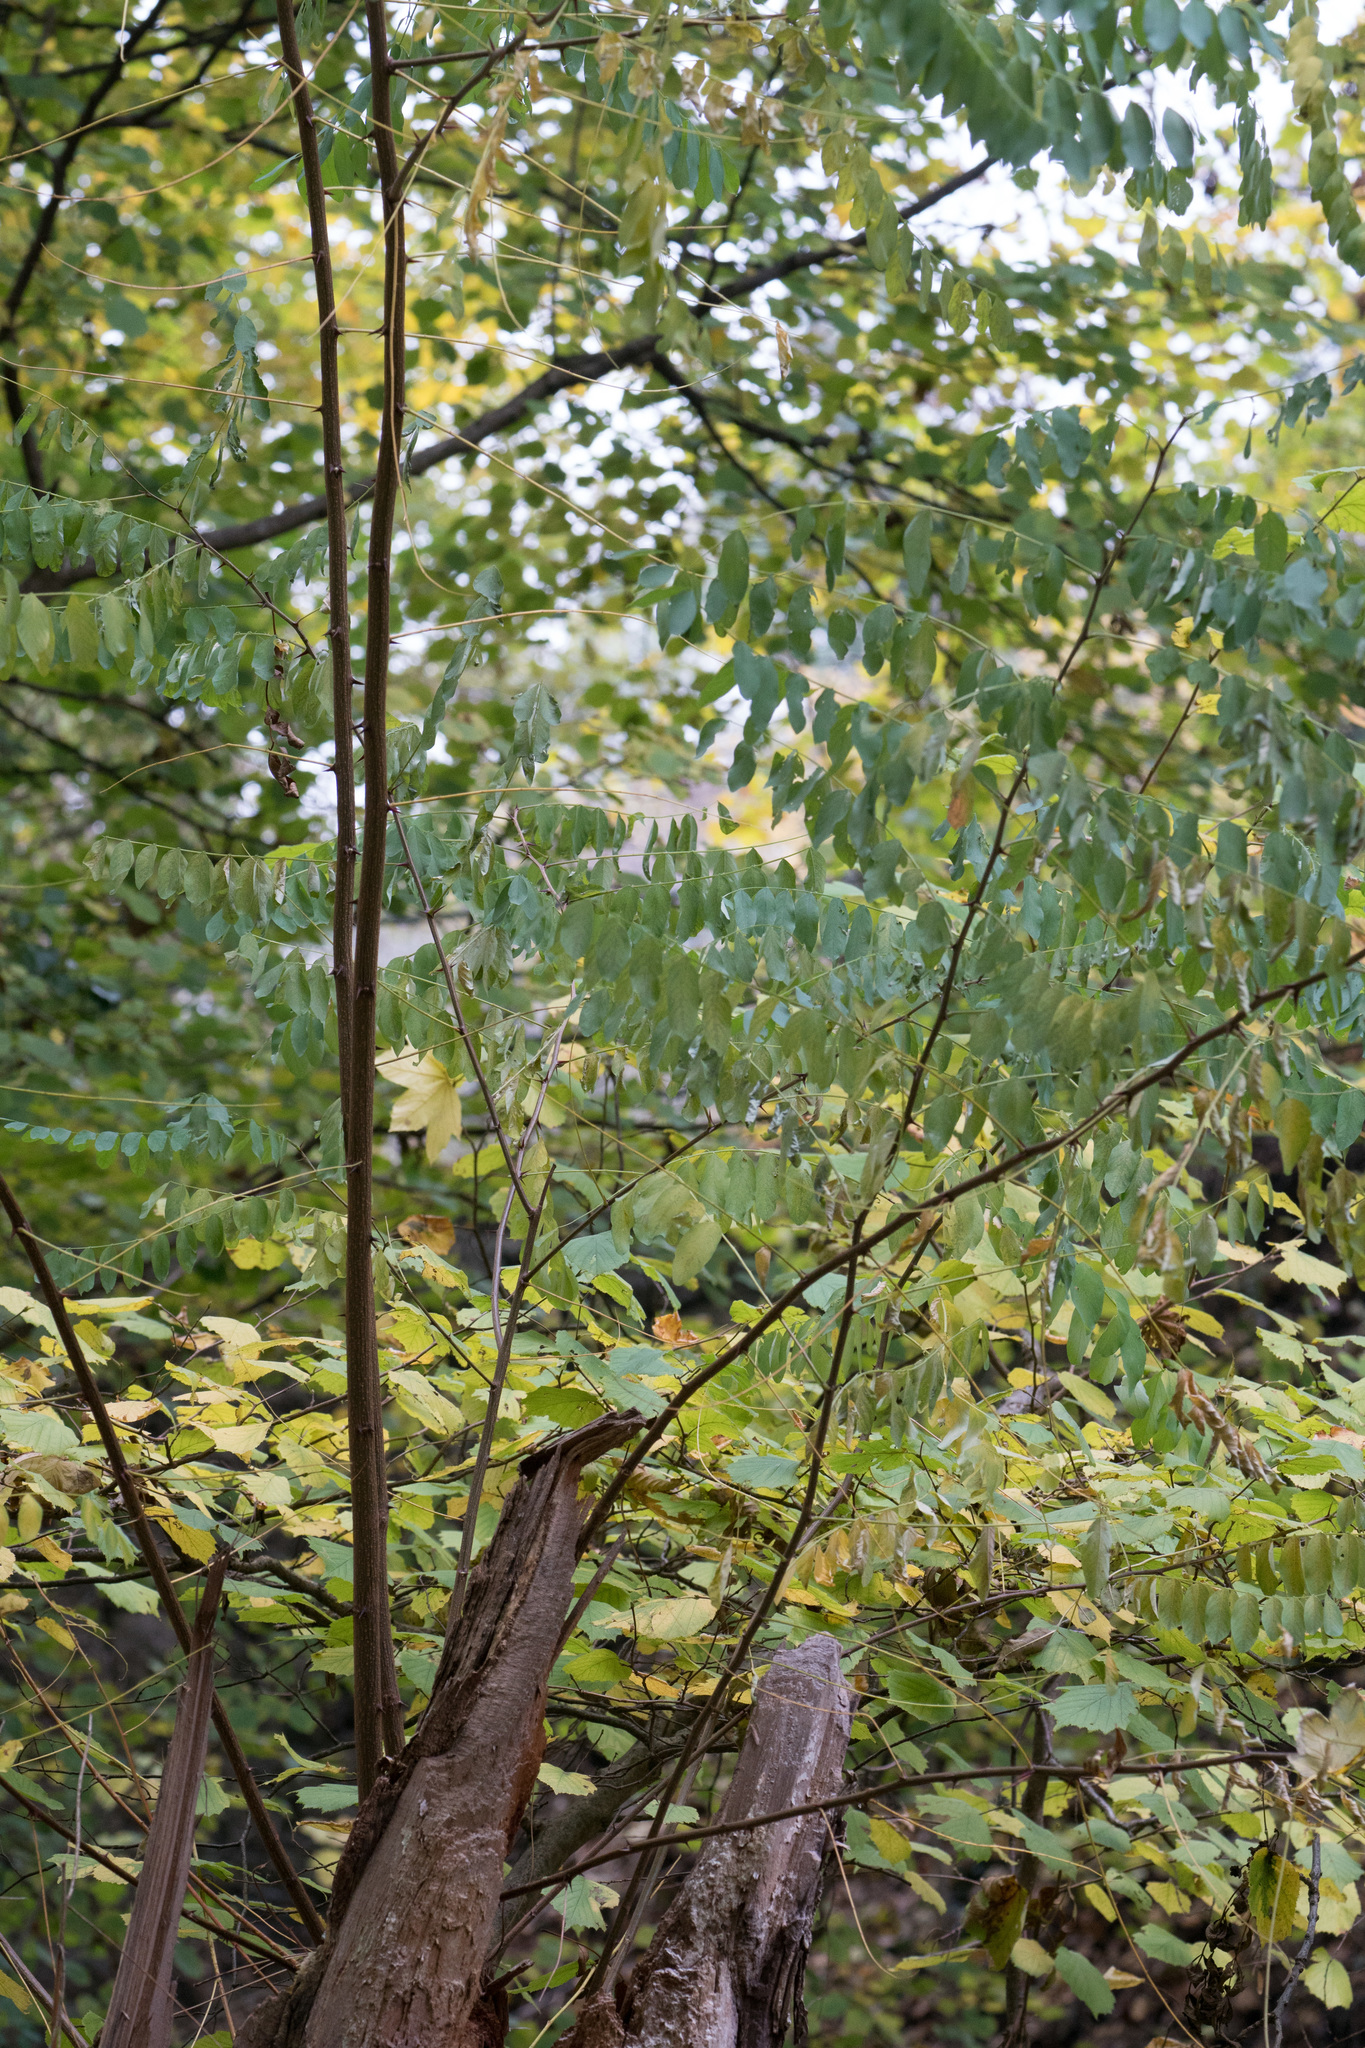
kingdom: Plantae
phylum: Tracheophyta
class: Magnoliopsida
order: Fabales
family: Fabaceae
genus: Robinia
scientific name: Robinia pseudoacacia
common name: Black locust
